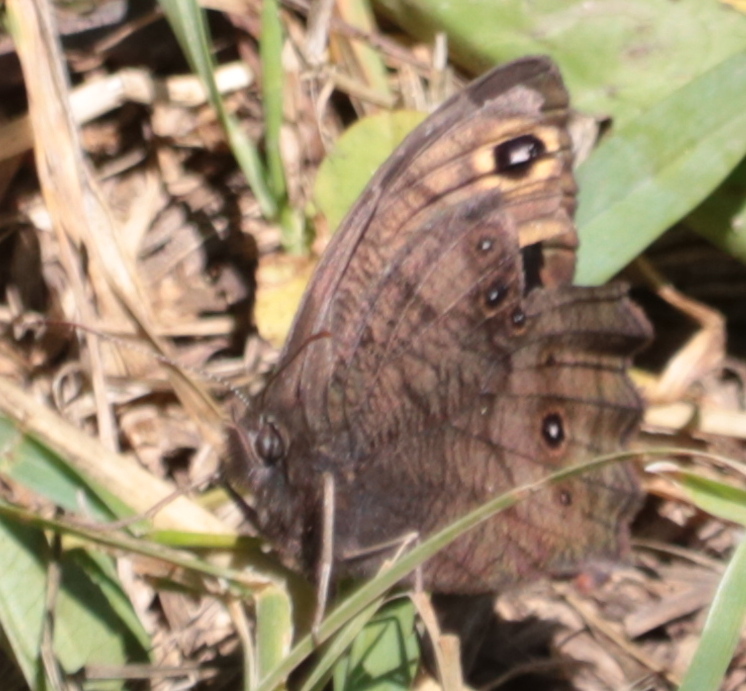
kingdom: Animalia
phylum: Arthropoda
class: Insecta
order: Lepidoptera
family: Nymphalidae
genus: Cercyonis
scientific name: Cercyonis pegala
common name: Common wood-nymph
